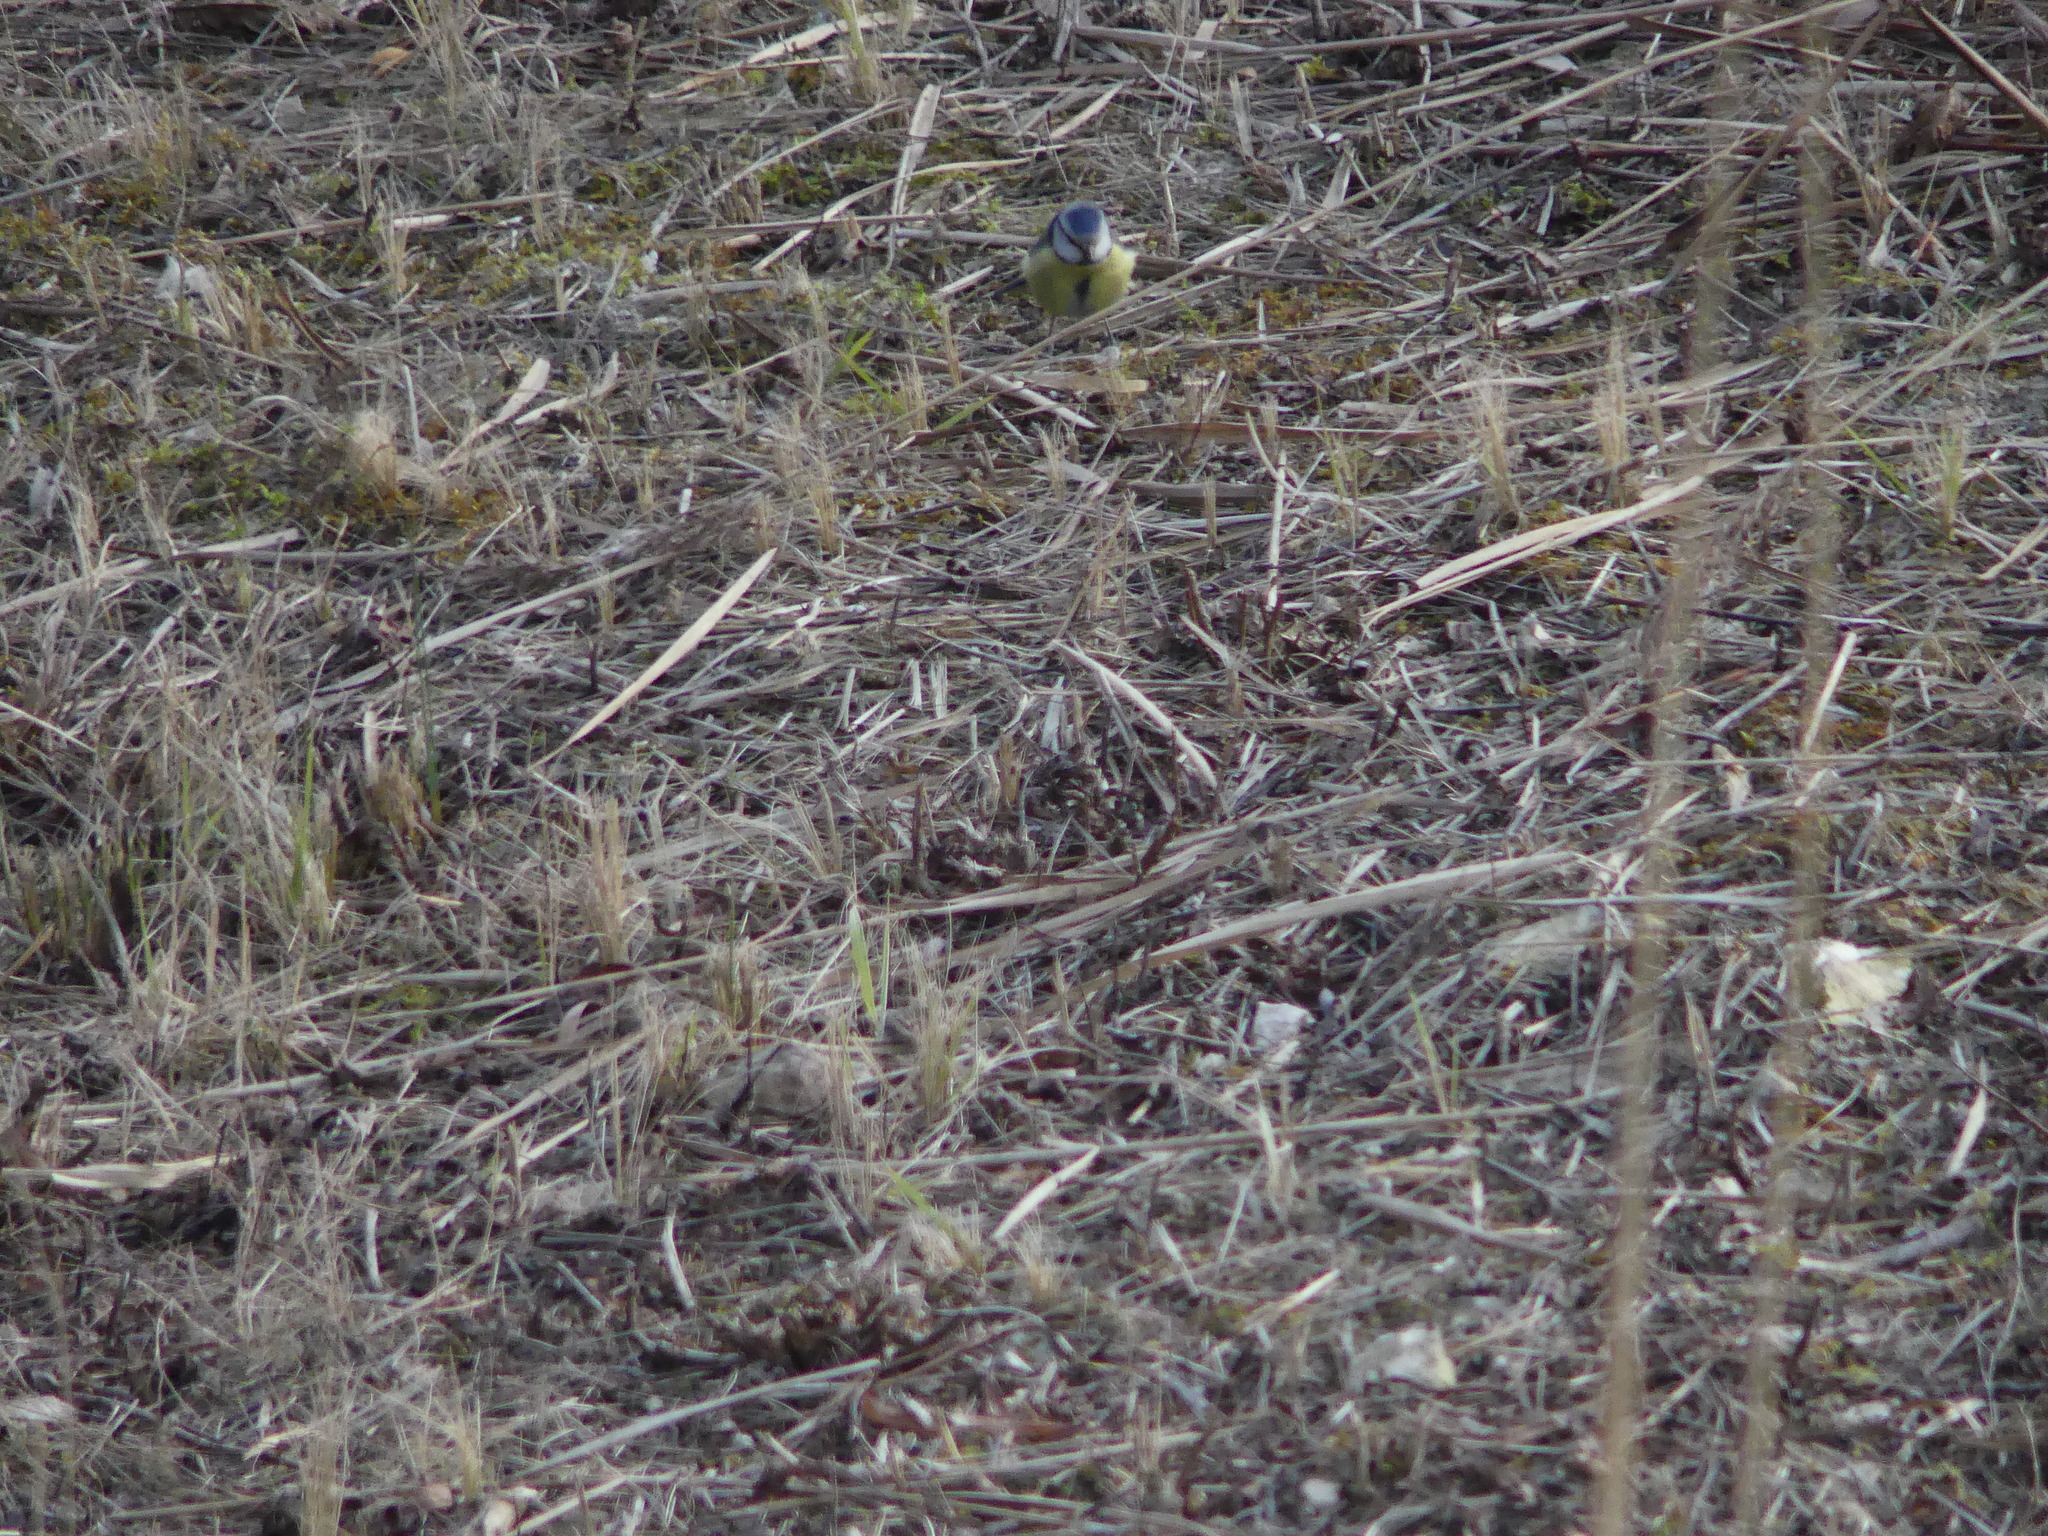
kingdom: Animalia
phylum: Chordata
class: Aves
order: Passeriformes
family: Paridae
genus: Cyanistes
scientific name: Cyanistes caeruleus
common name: Eurasian blue tit
